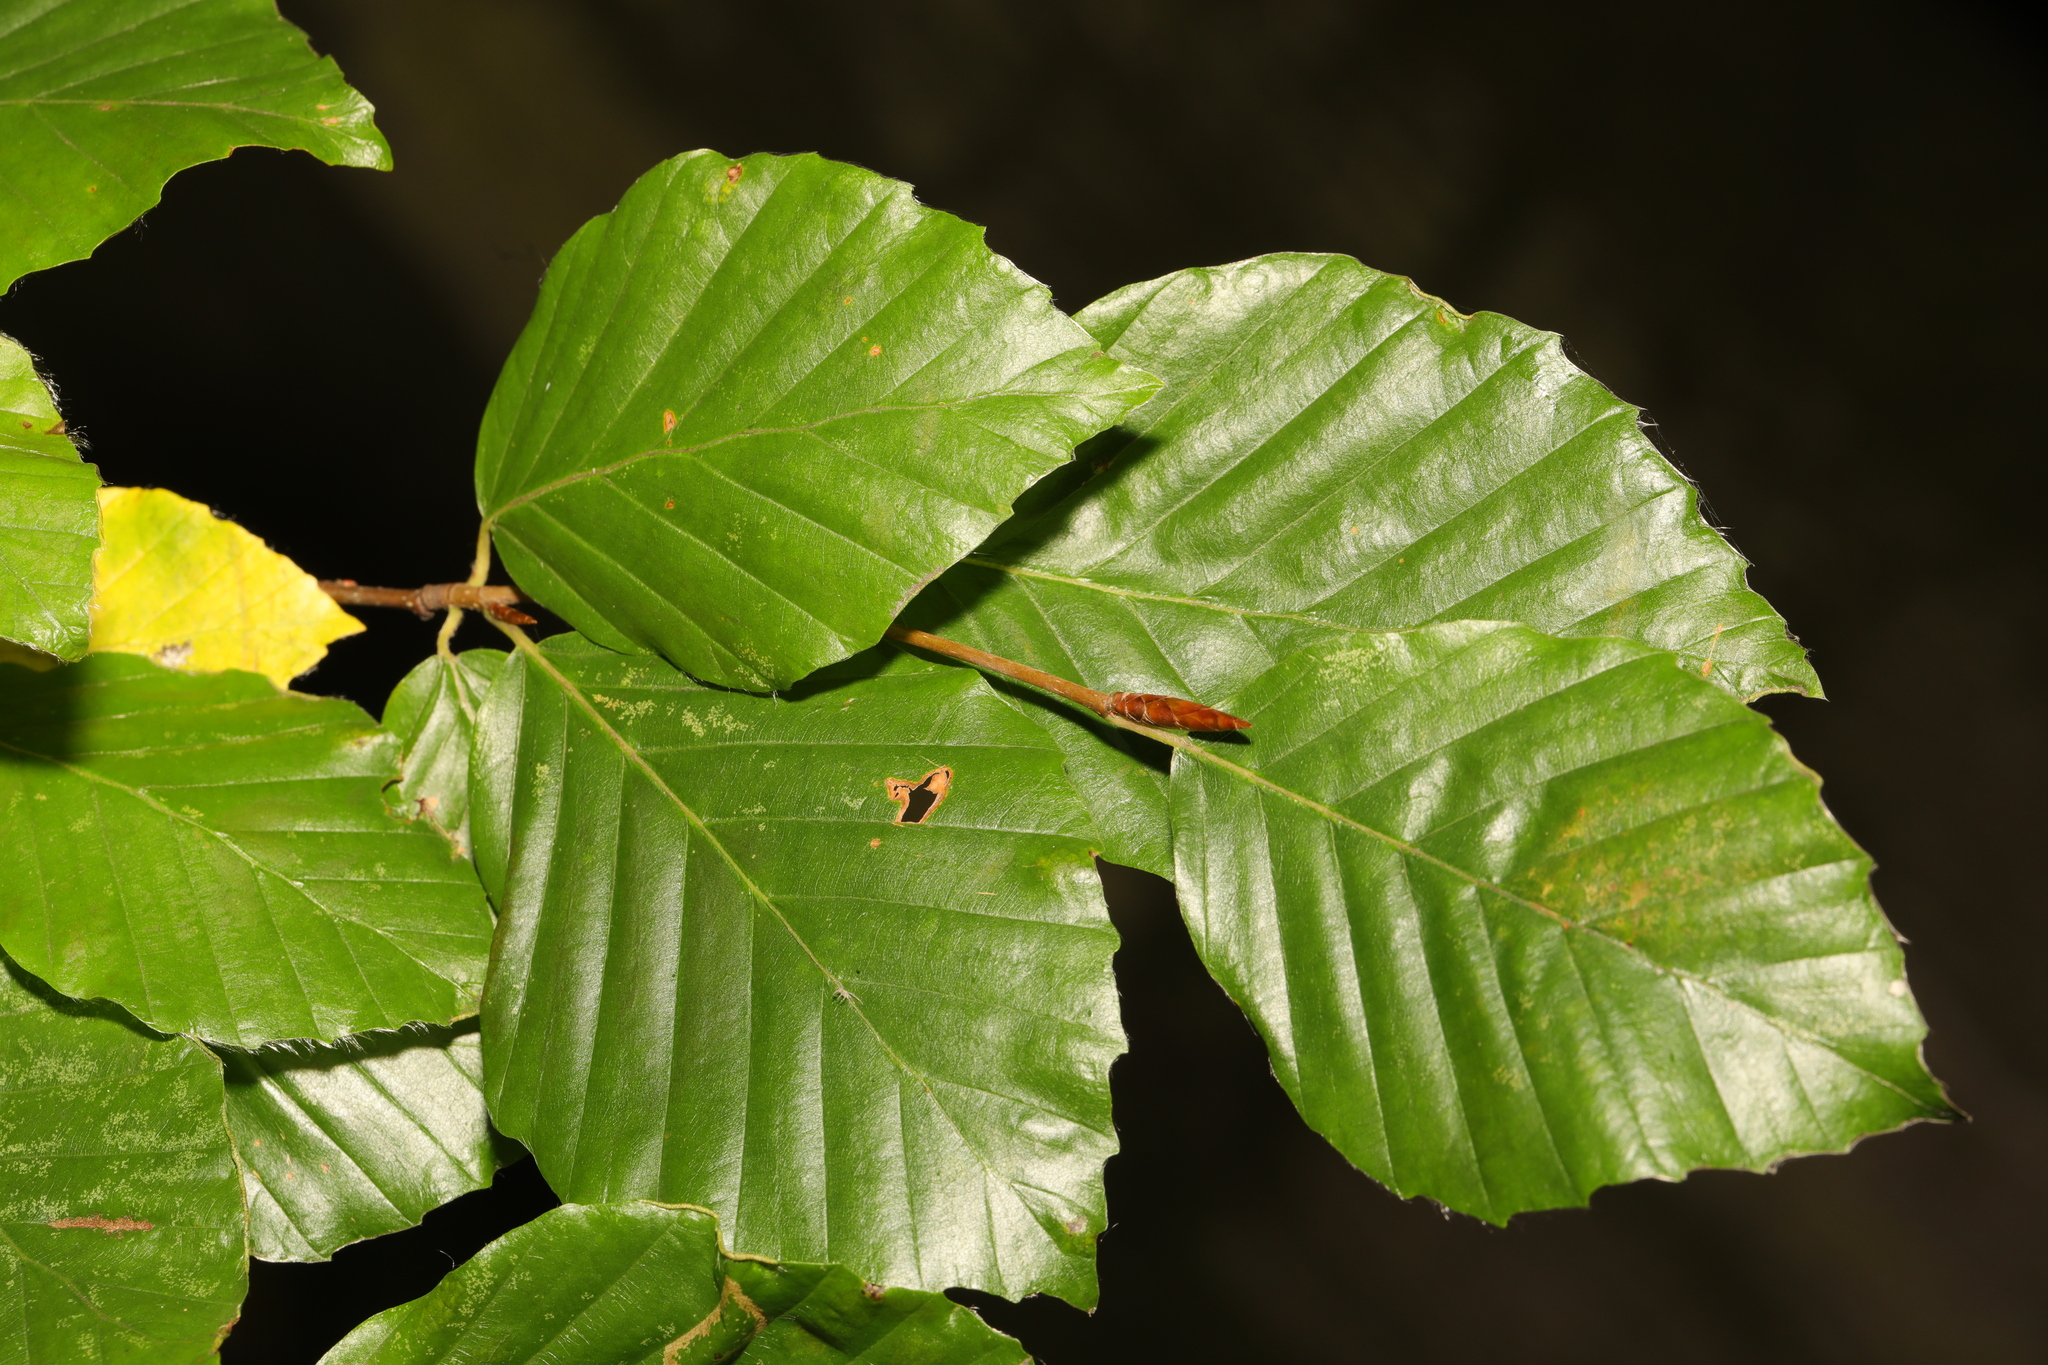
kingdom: Plantae
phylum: Tracheophyta
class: Magnoliopsida
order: Fagales
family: Fagaceae
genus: Fagus
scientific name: Fagus sylvatica
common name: Beech
